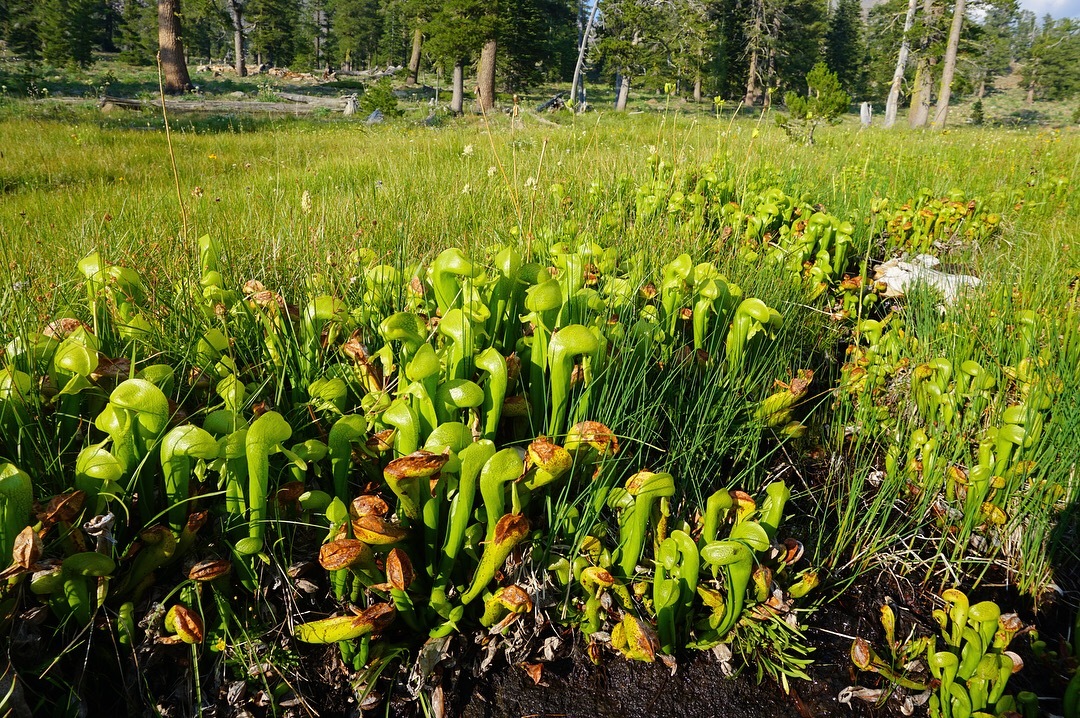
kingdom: Plantae
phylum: Tracheophyta
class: Magnoliopsida
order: Ericales
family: Sarraceniaceae
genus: Darlingtonia
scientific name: Darlingtonia californica
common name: California pitcher plant
